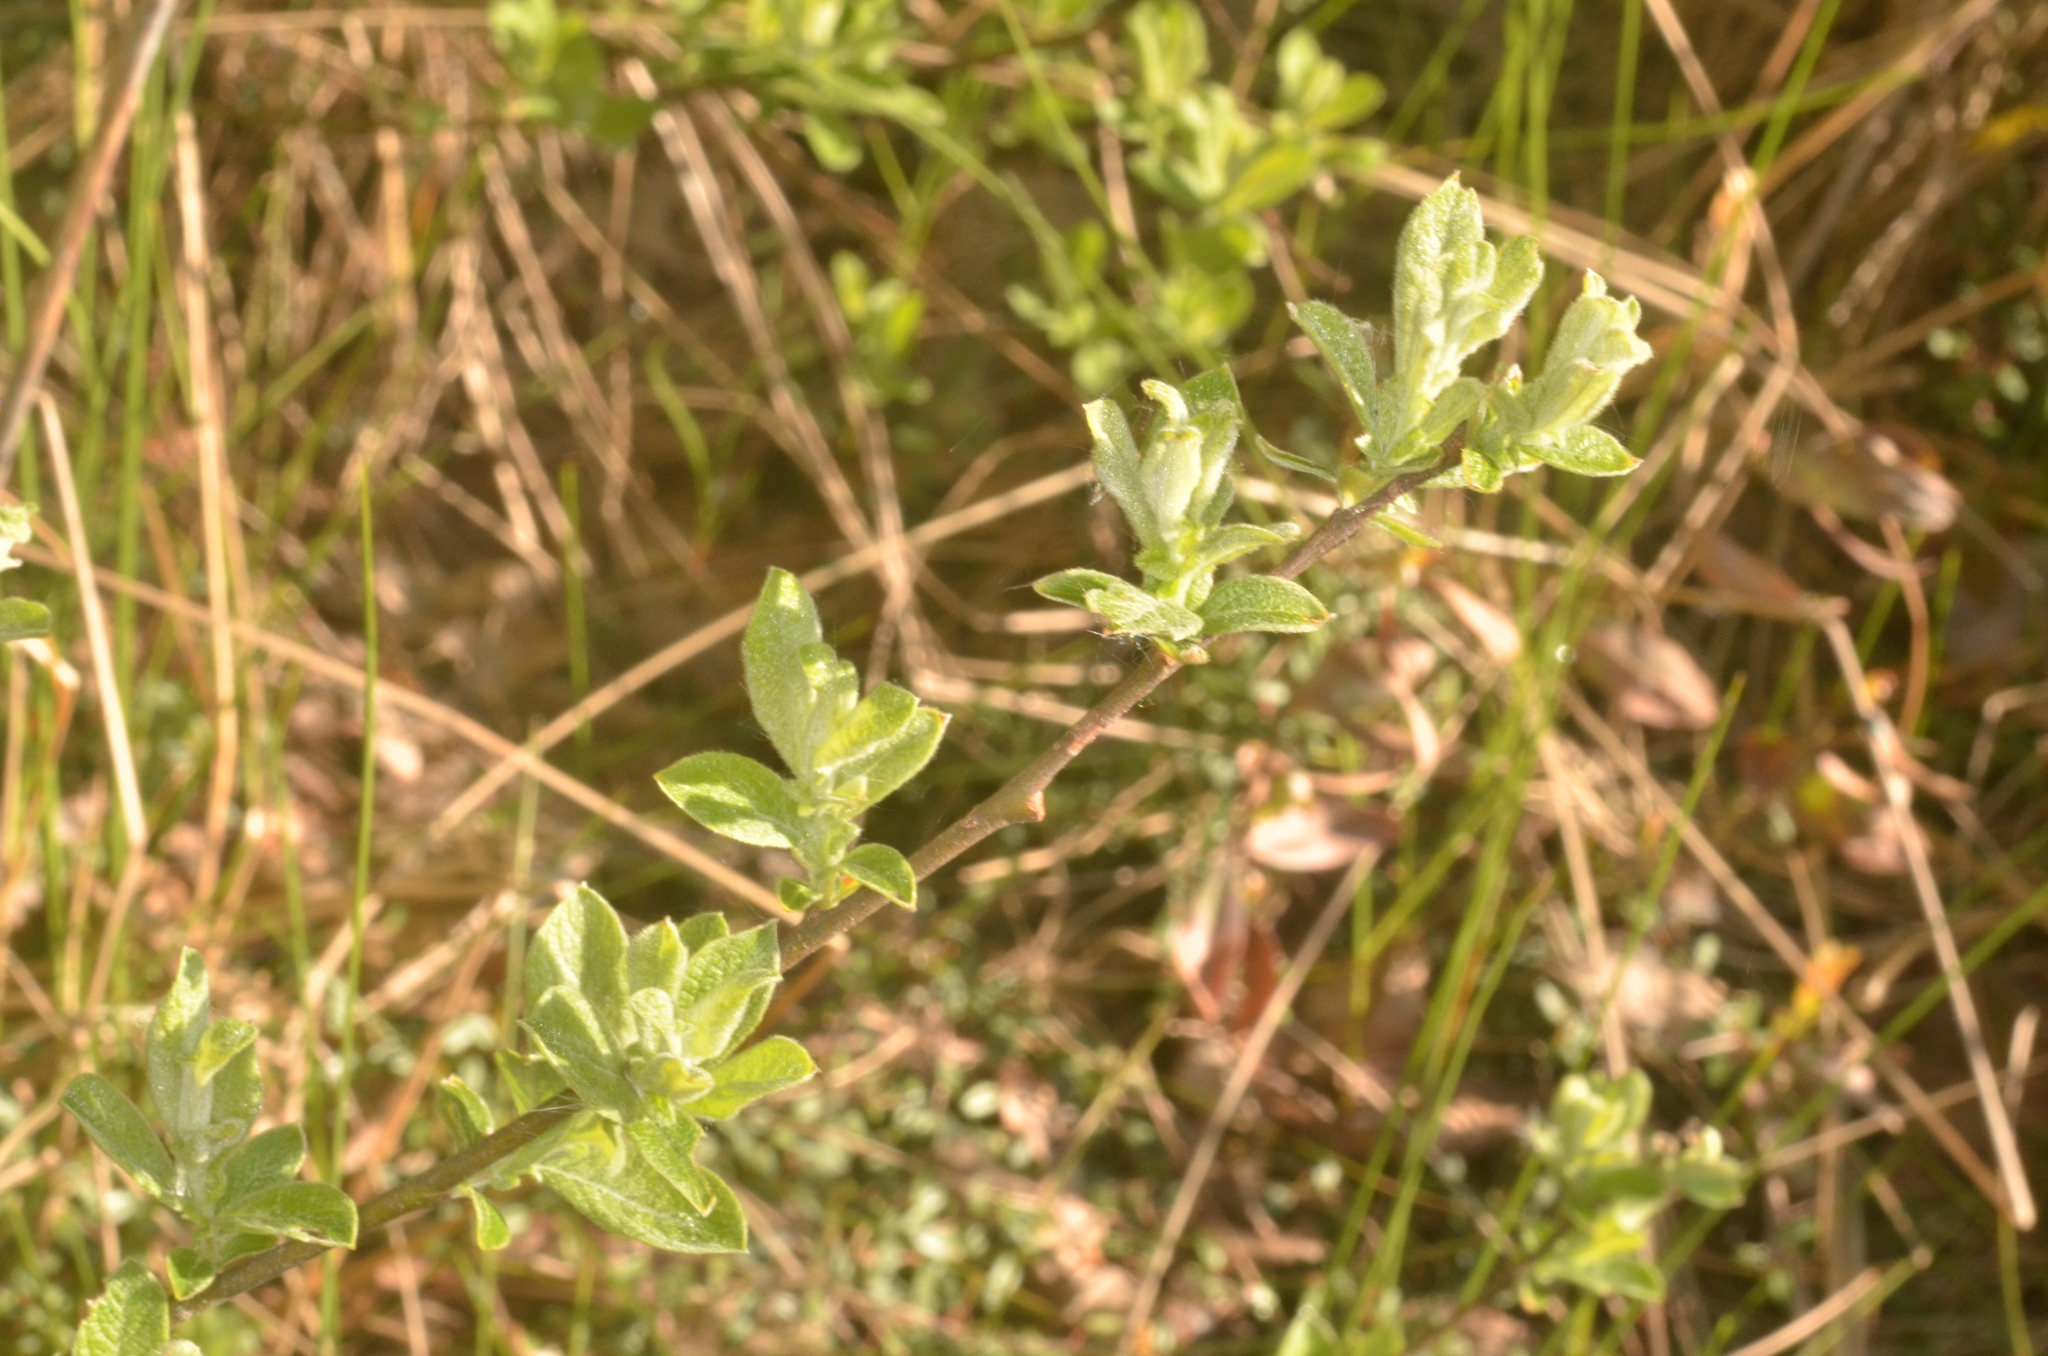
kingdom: Plantae
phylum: Tracheophyta
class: Magnoliopsida
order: Malpighiales
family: Salicaceae
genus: Salix
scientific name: Salix aurita
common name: Eared willow
